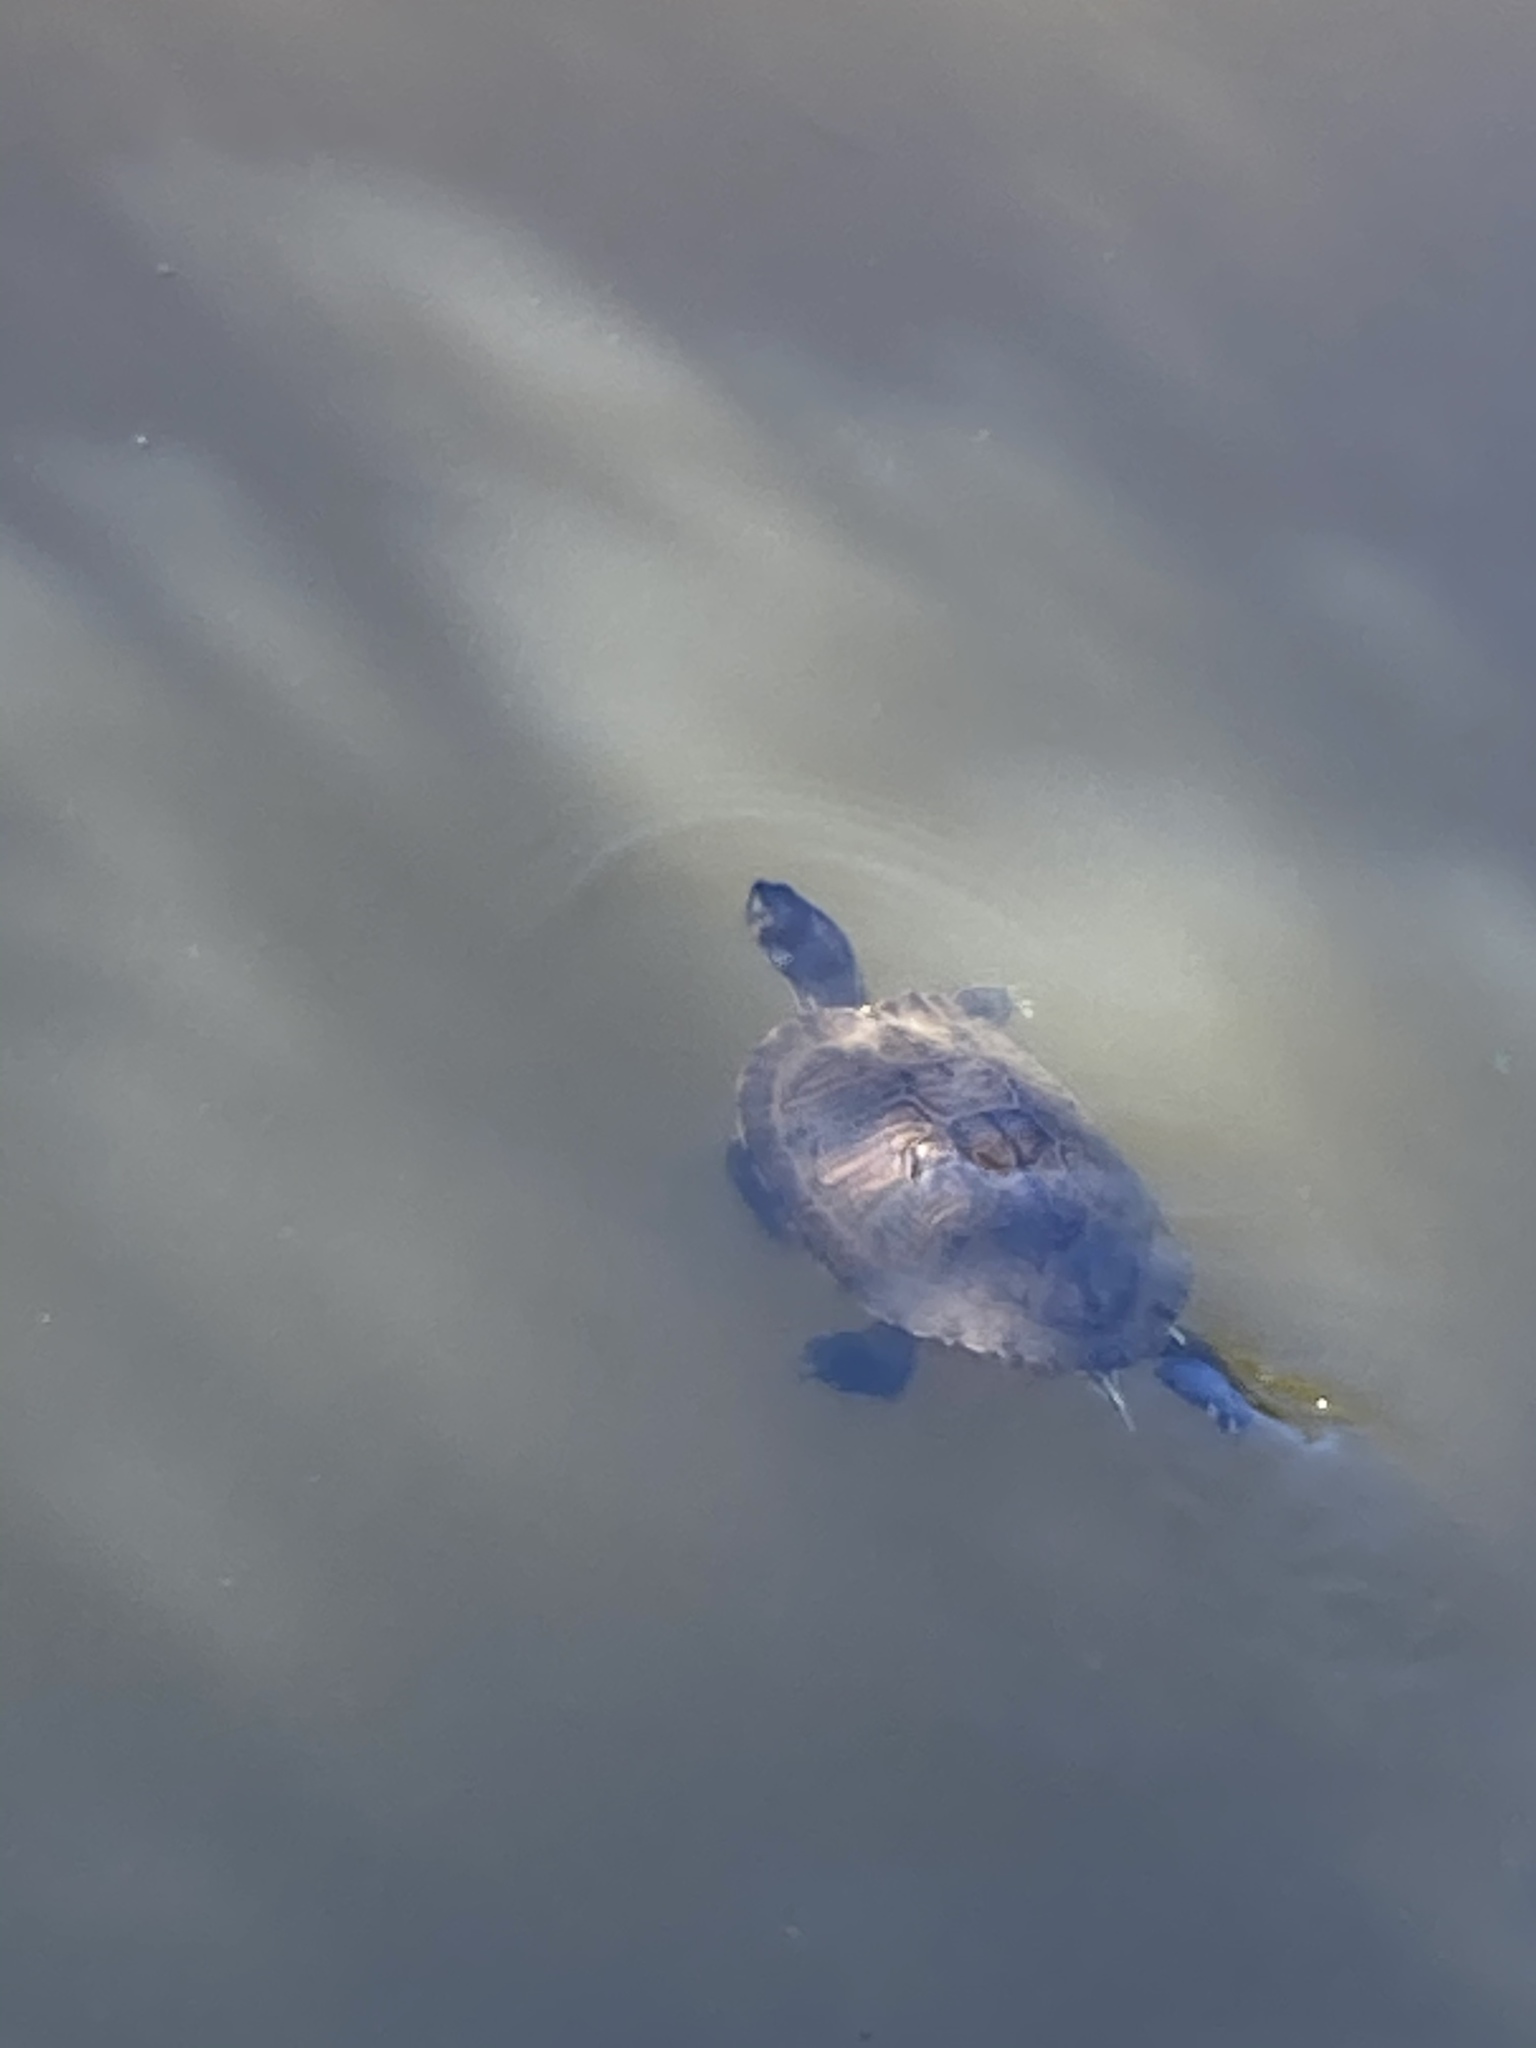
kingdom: Animalia
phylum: Chordata
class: Testudines
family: Emydidae
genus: Trachemys
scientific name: Trachemys scripta
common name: Slider
